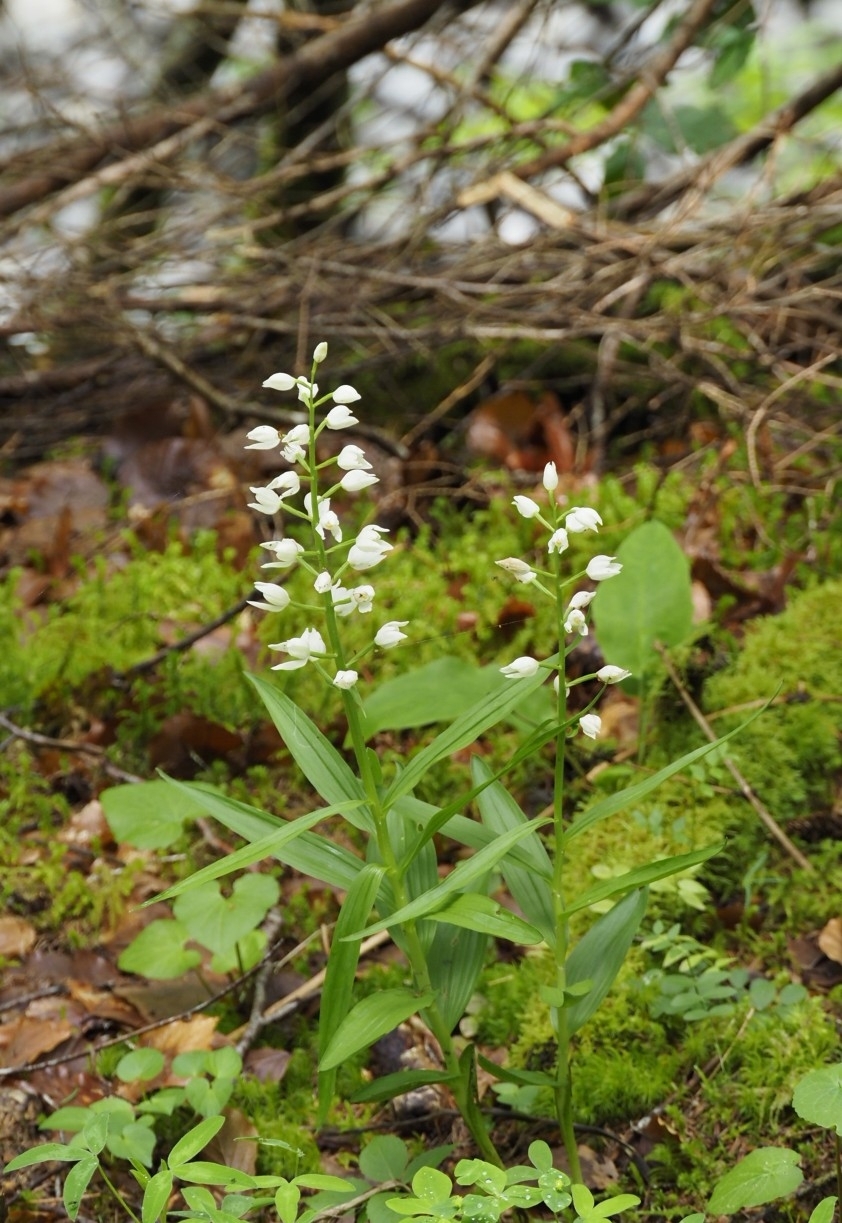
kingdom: Plantae
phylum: Tracheophyta
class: Liliopsida
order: Asparagales
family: Orchidaceae
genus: Cephalanthera
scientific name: Cephalanthera longifolia
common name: Narrow-leaved helleborine
